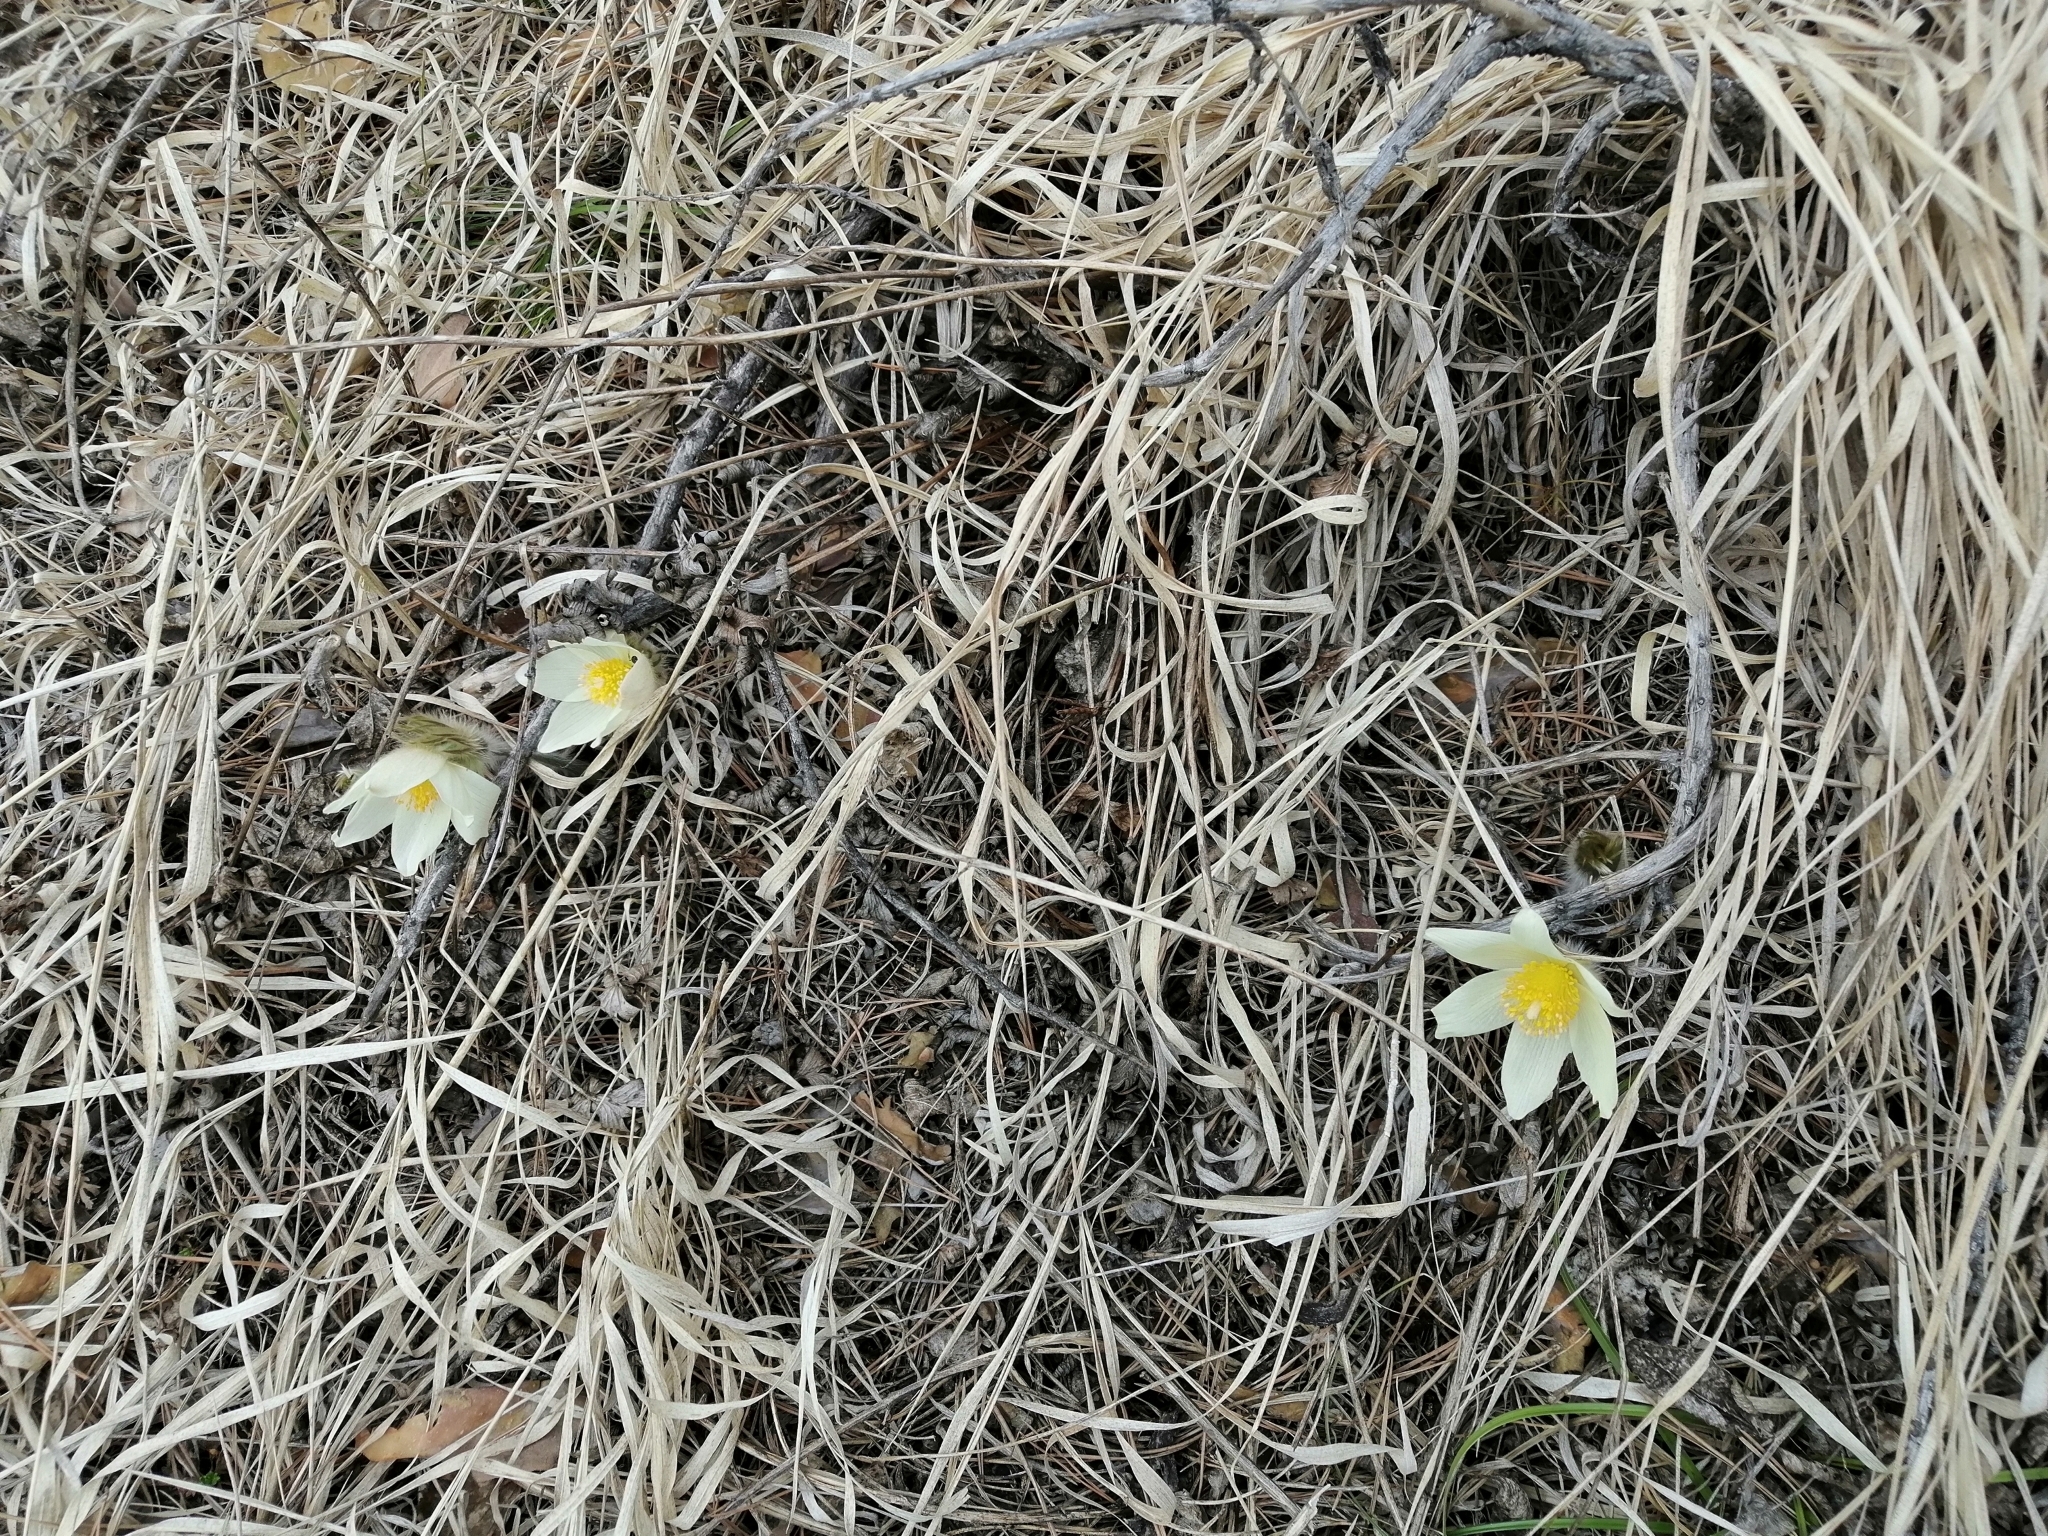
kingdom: Plantae
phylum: Tracheophyta
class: Magnoliopsida
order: Ranunculales
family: Ranunculaceae
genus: Pulsatilla
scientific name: Pulsatilla patens
